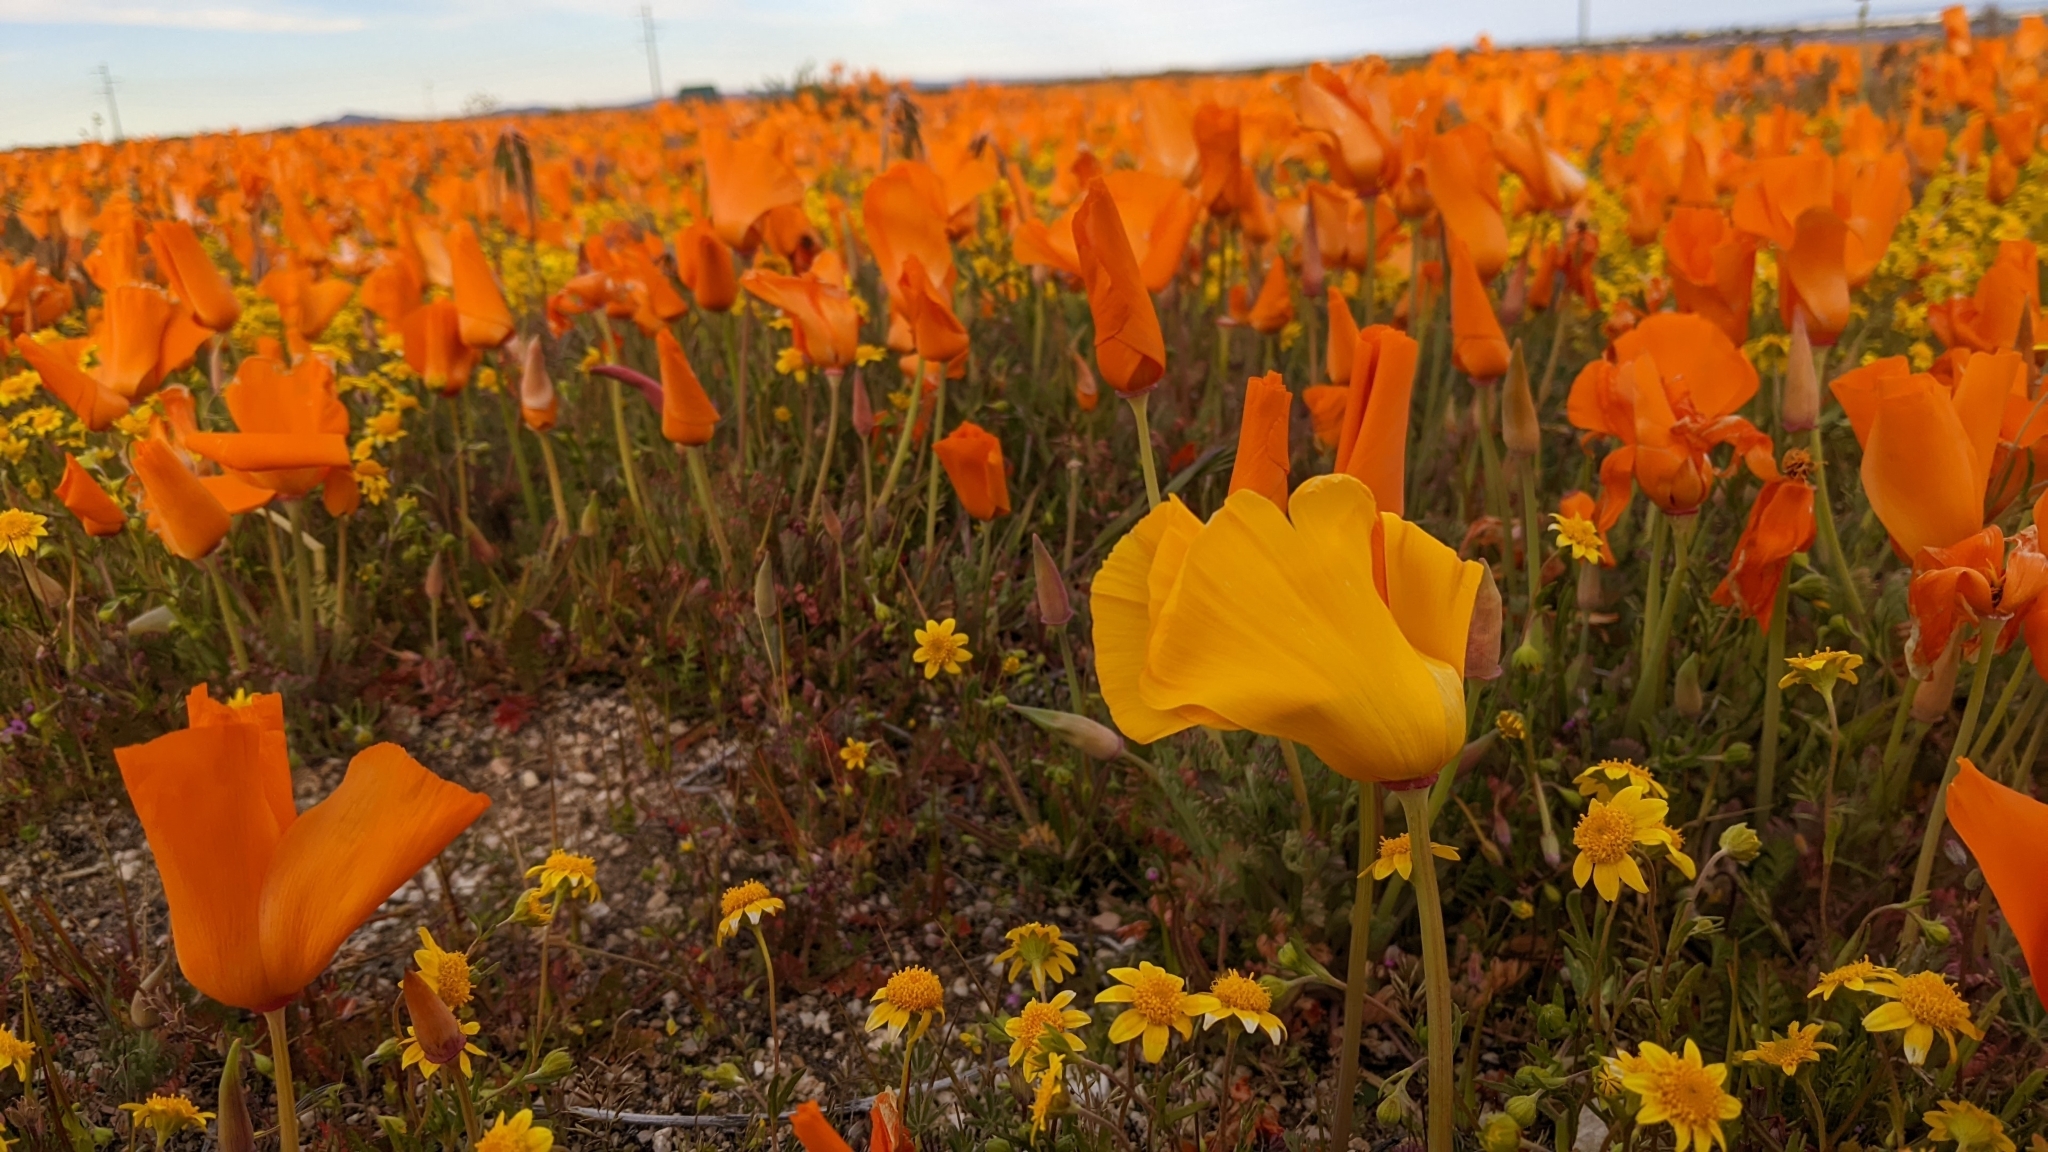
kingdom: Plantae
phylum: Tracheophyta
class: Magnoliopsida
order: Ranunculales
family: Papaveraceae
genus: Eschscholzia
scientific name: Eschscholzia californica
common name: California poppy
